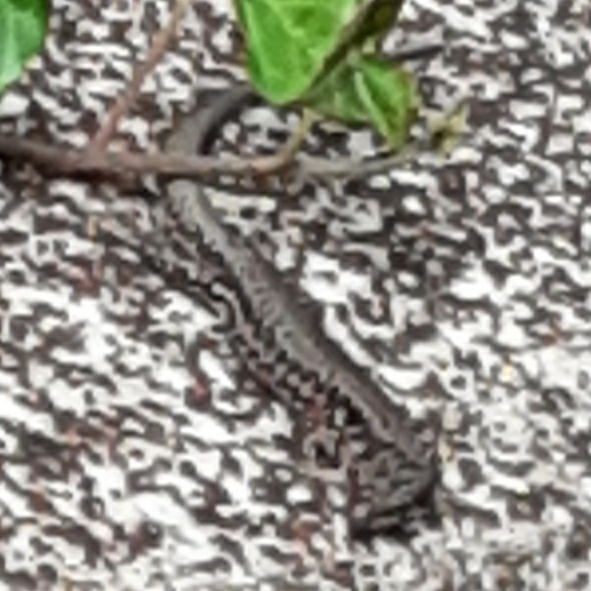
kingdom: Animalia
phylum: Chordata
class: Squamata
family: Lacertidae
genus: Podarcis
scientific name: Podarcis muralis
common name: Common wall lizard
